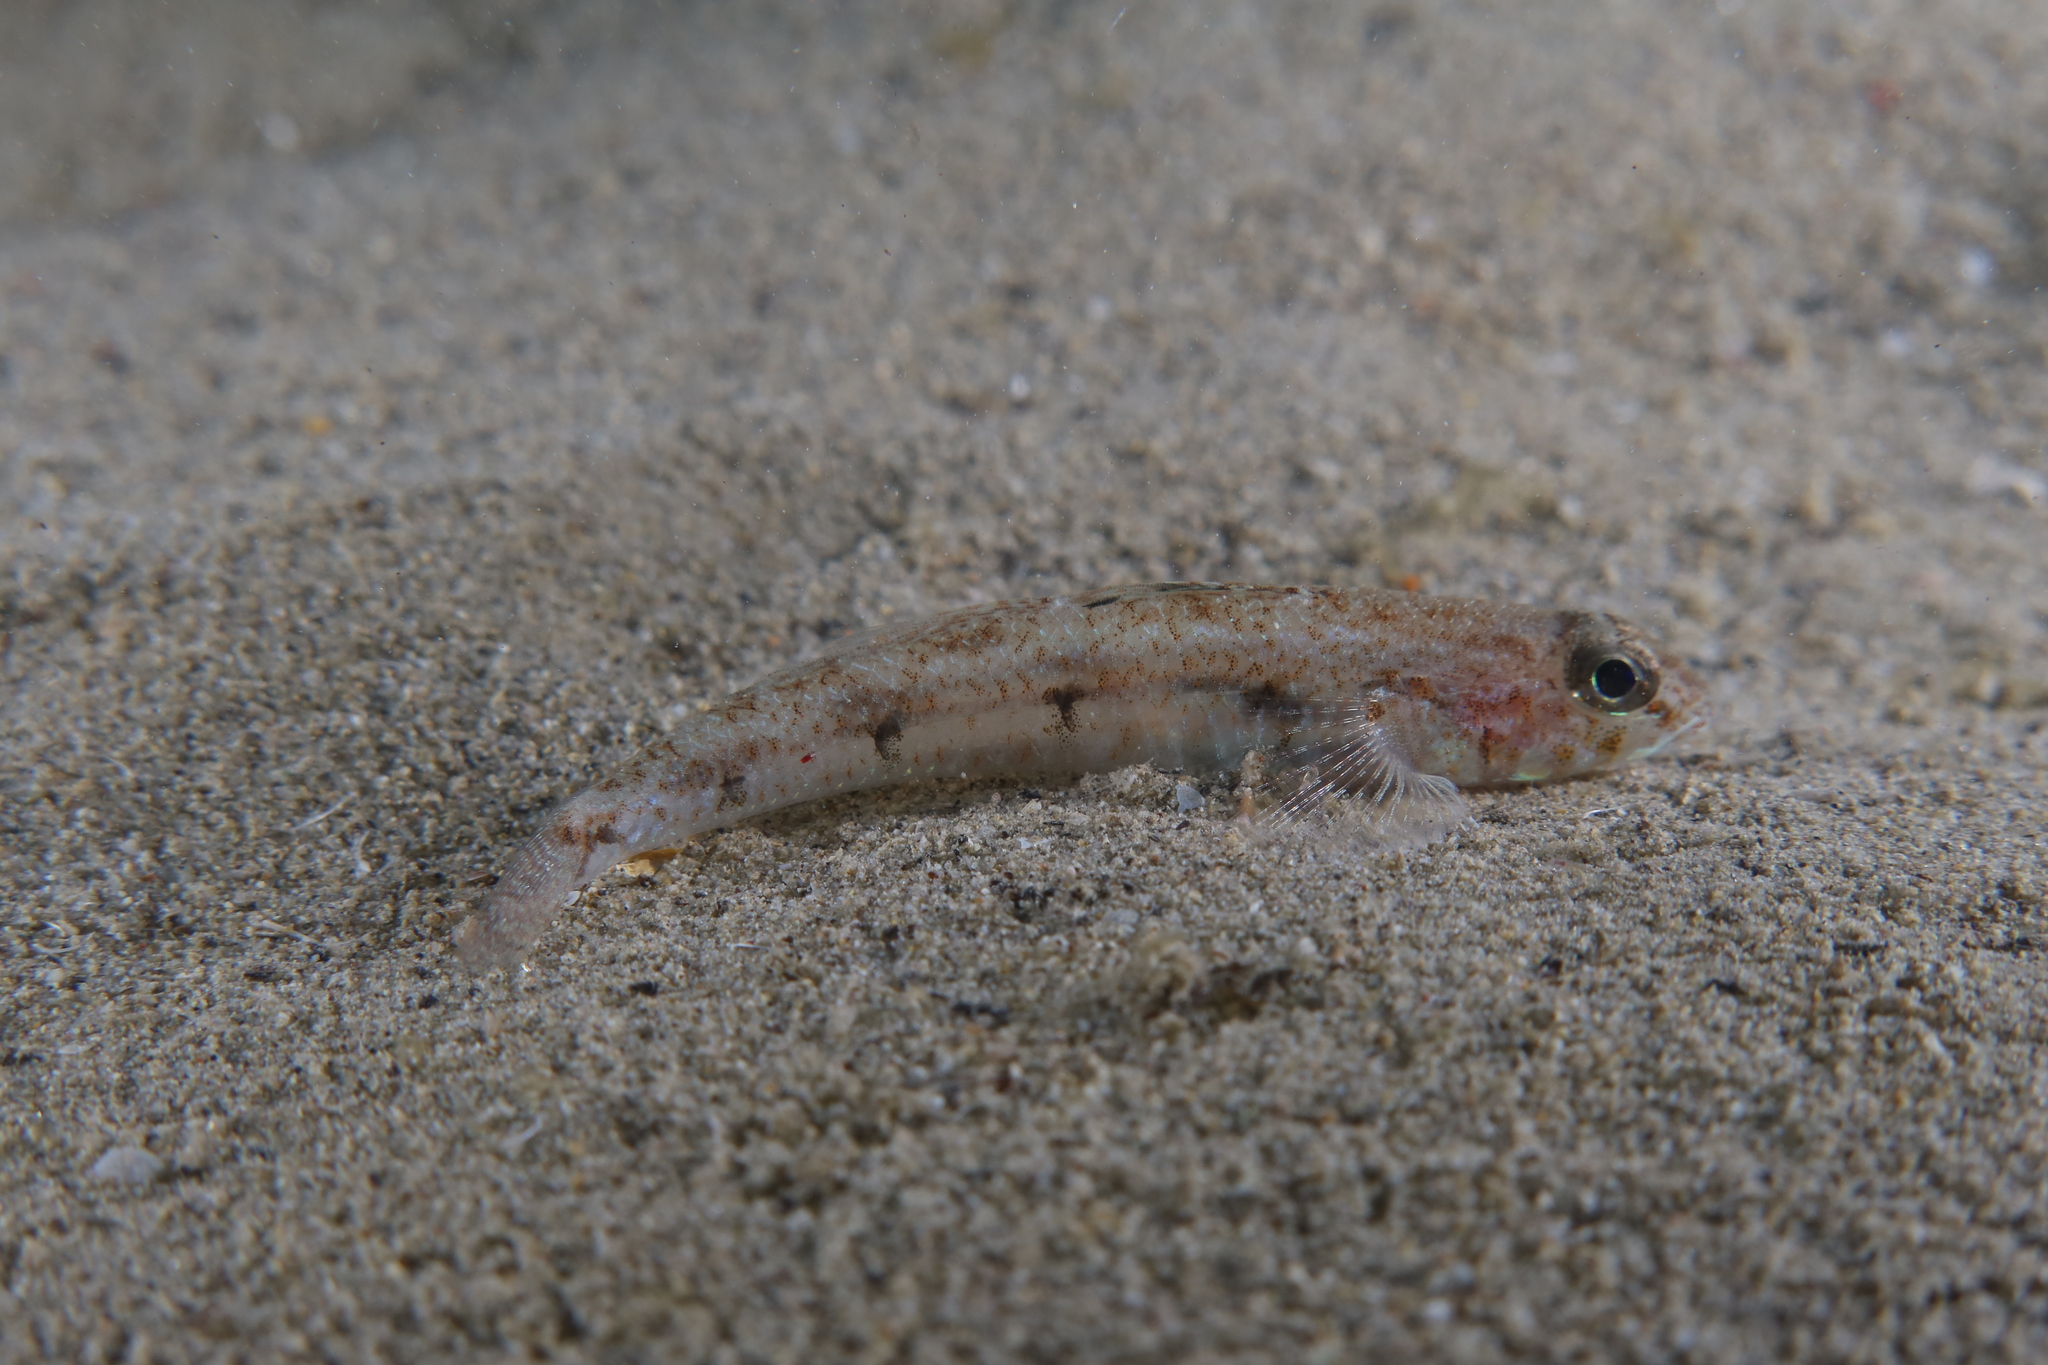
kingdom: Animalia
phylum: Chordata
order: Perciformes
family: Gobiidae
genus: Deltentosteus
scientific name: Deltentosteus quadrimaculatus
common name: Four-spotted goby
